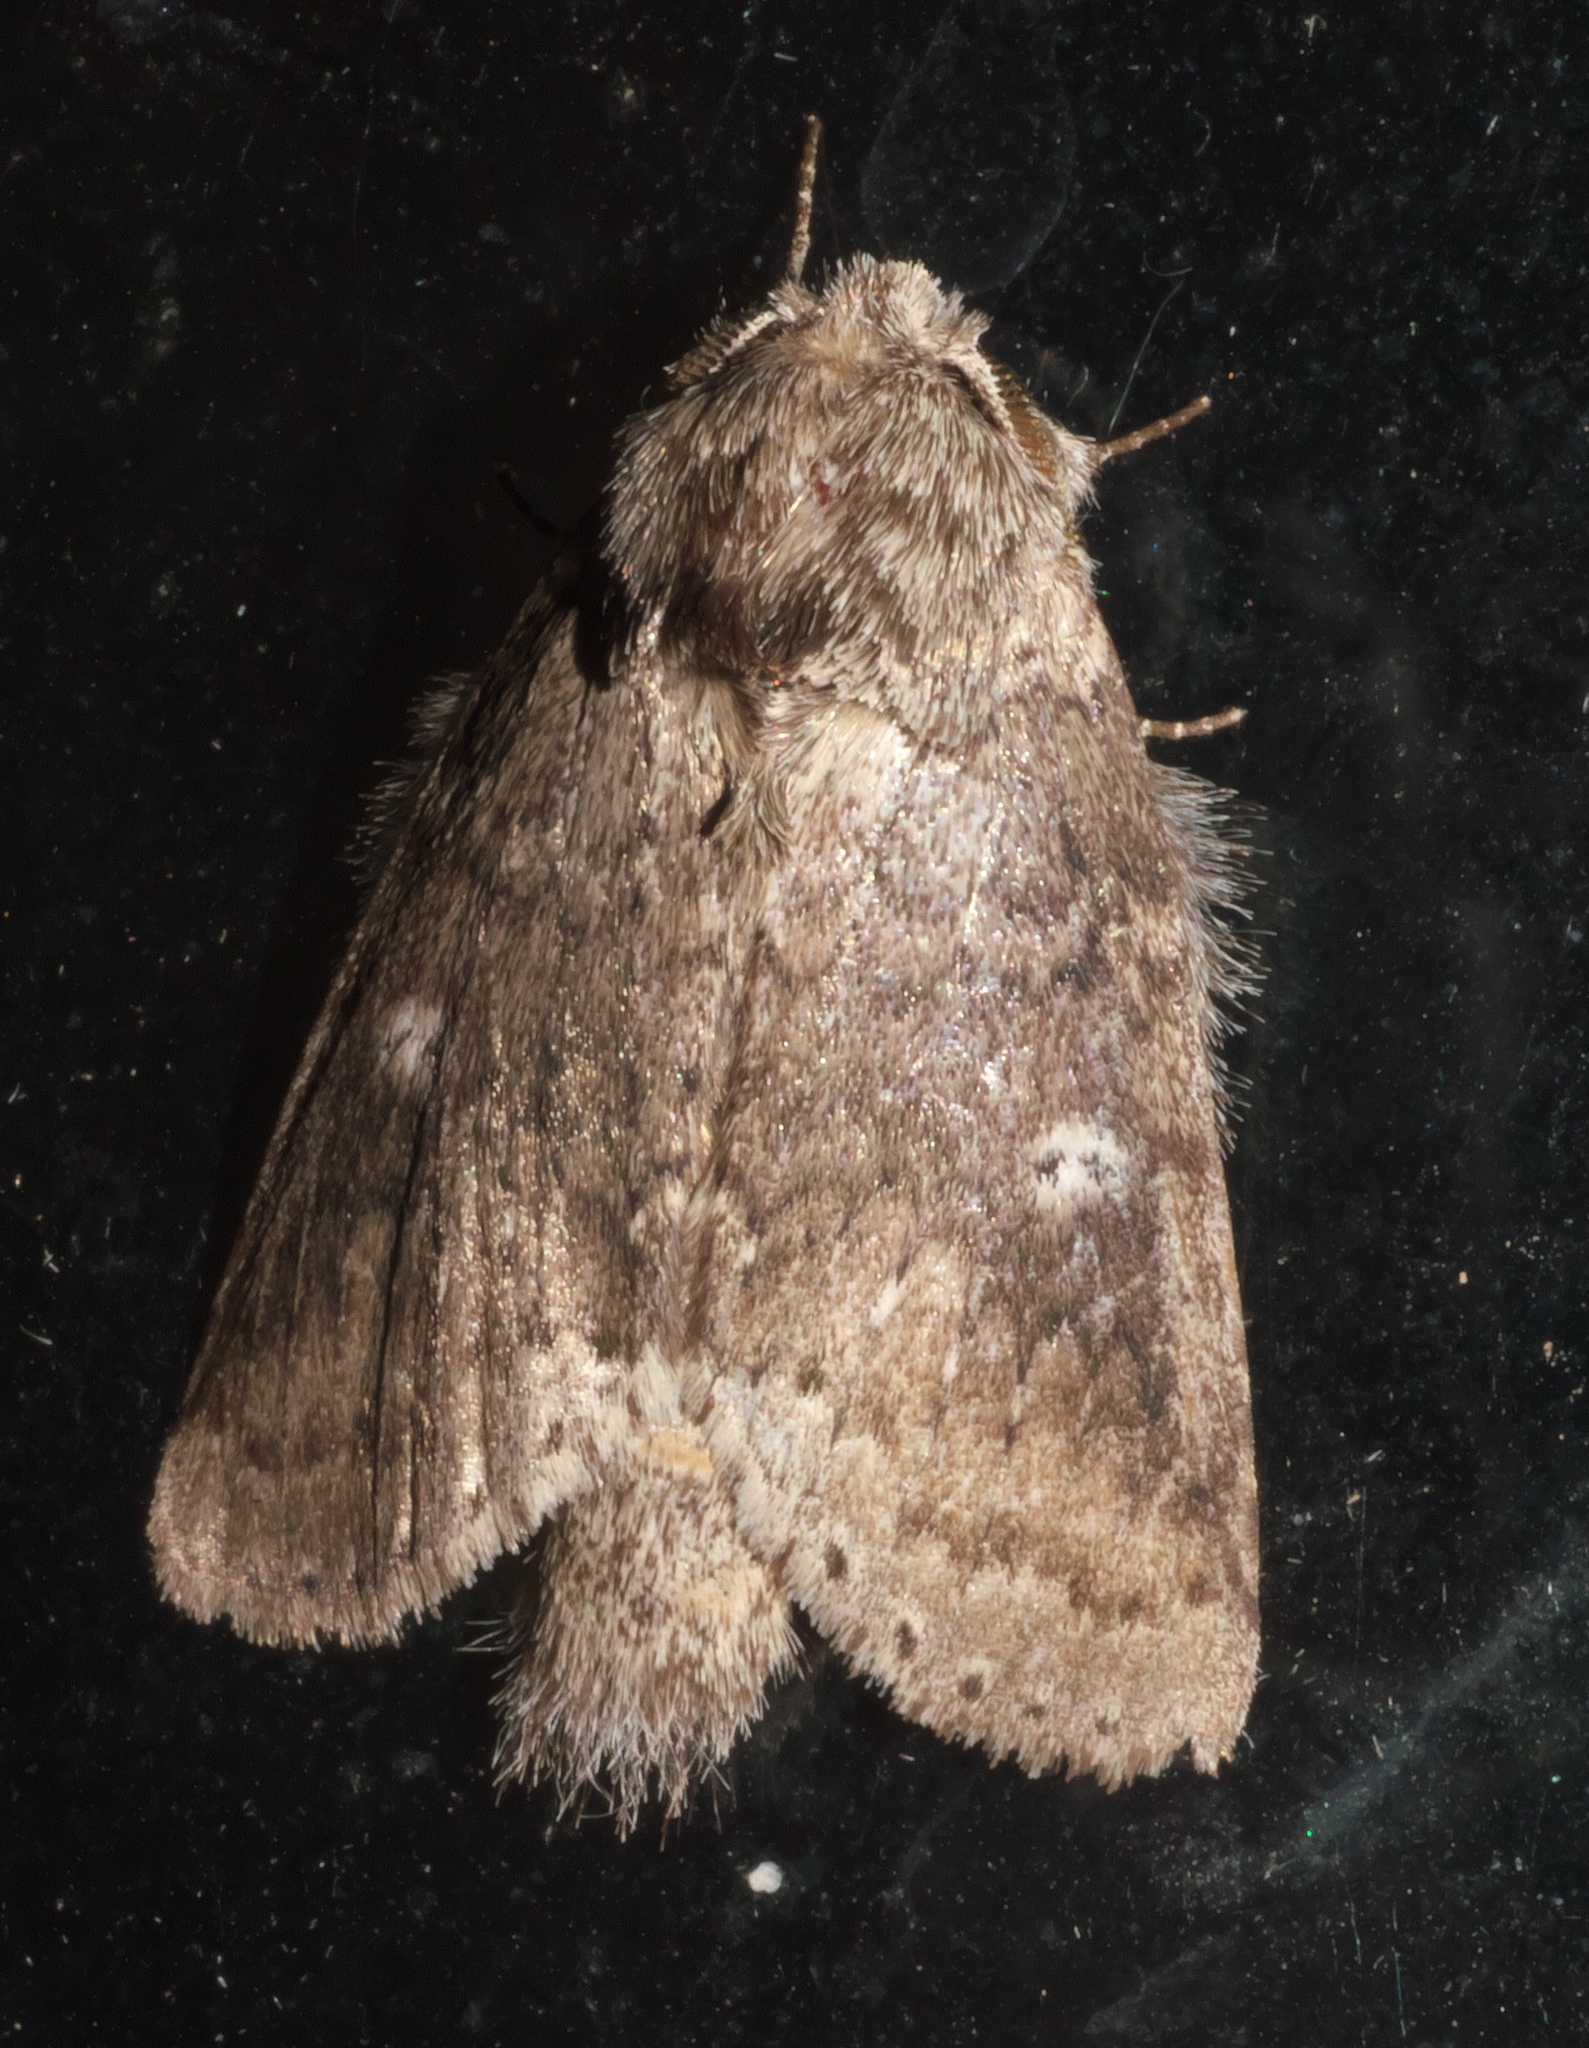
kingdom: Animalia
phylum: Arthropoda
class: Insecta
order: Lepidoptera
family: Notodontidae
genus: Lochmaeus
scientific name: Lochmaeus manteo
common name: Variable oakleaf caterpillar moth
